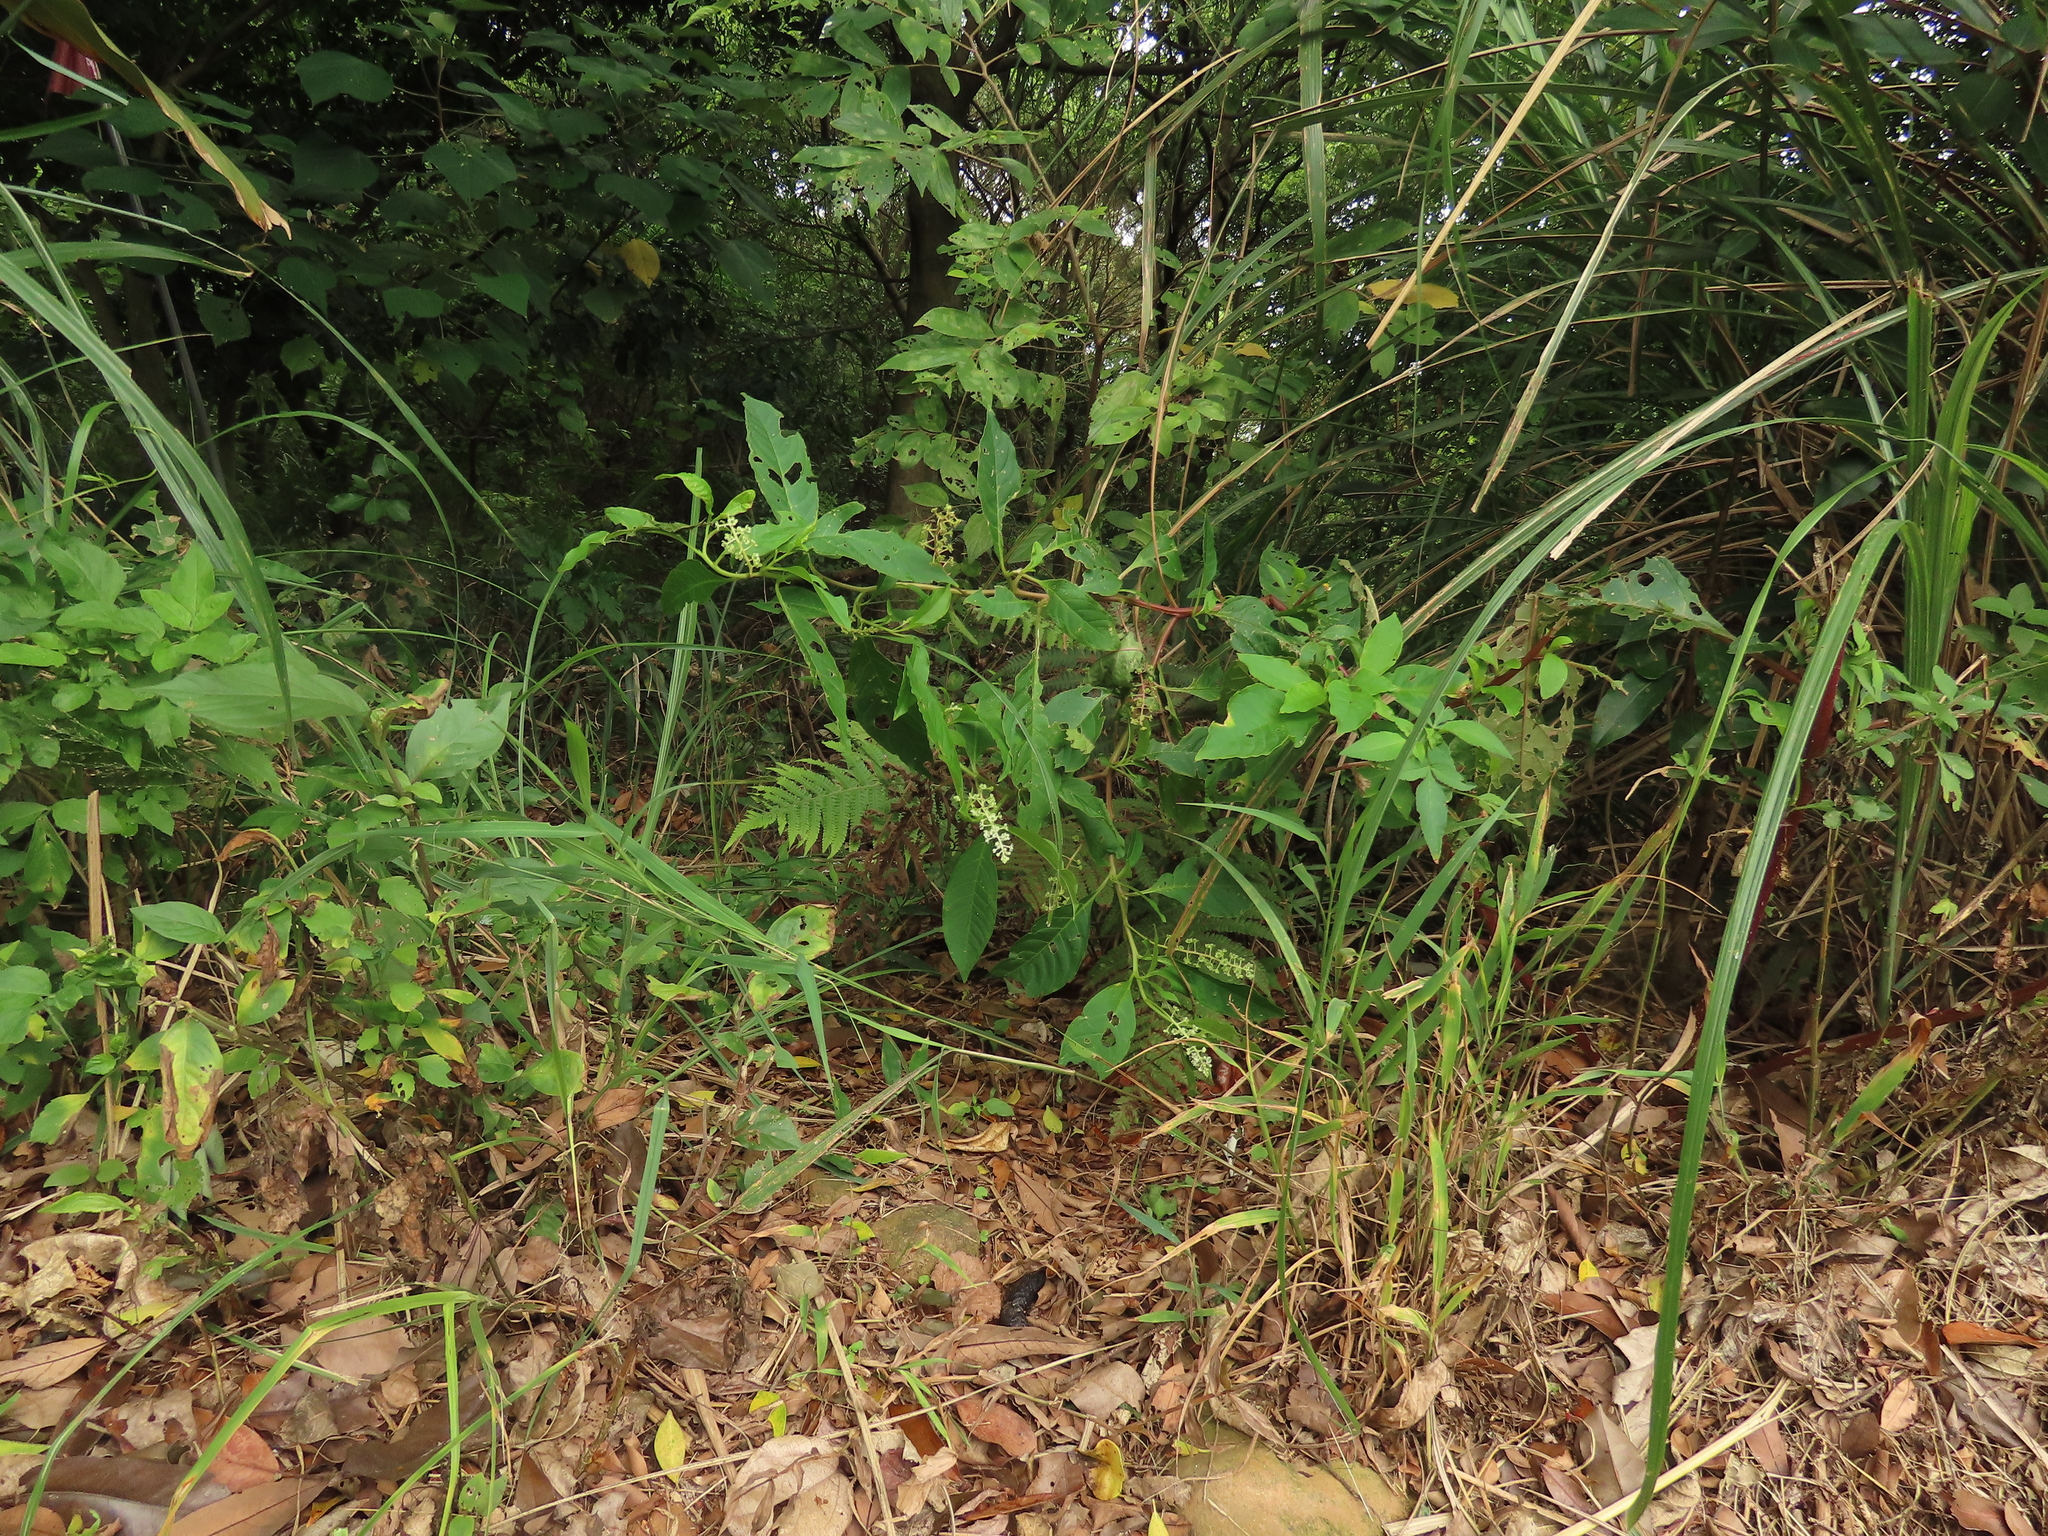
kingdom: Plantae
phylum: Tracheophyta
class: Magnoliopsida
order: Caryophyllales
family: Phytolaccaceae
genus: Phytolacca
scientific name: Phytolacca americana
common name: American pokeweed
